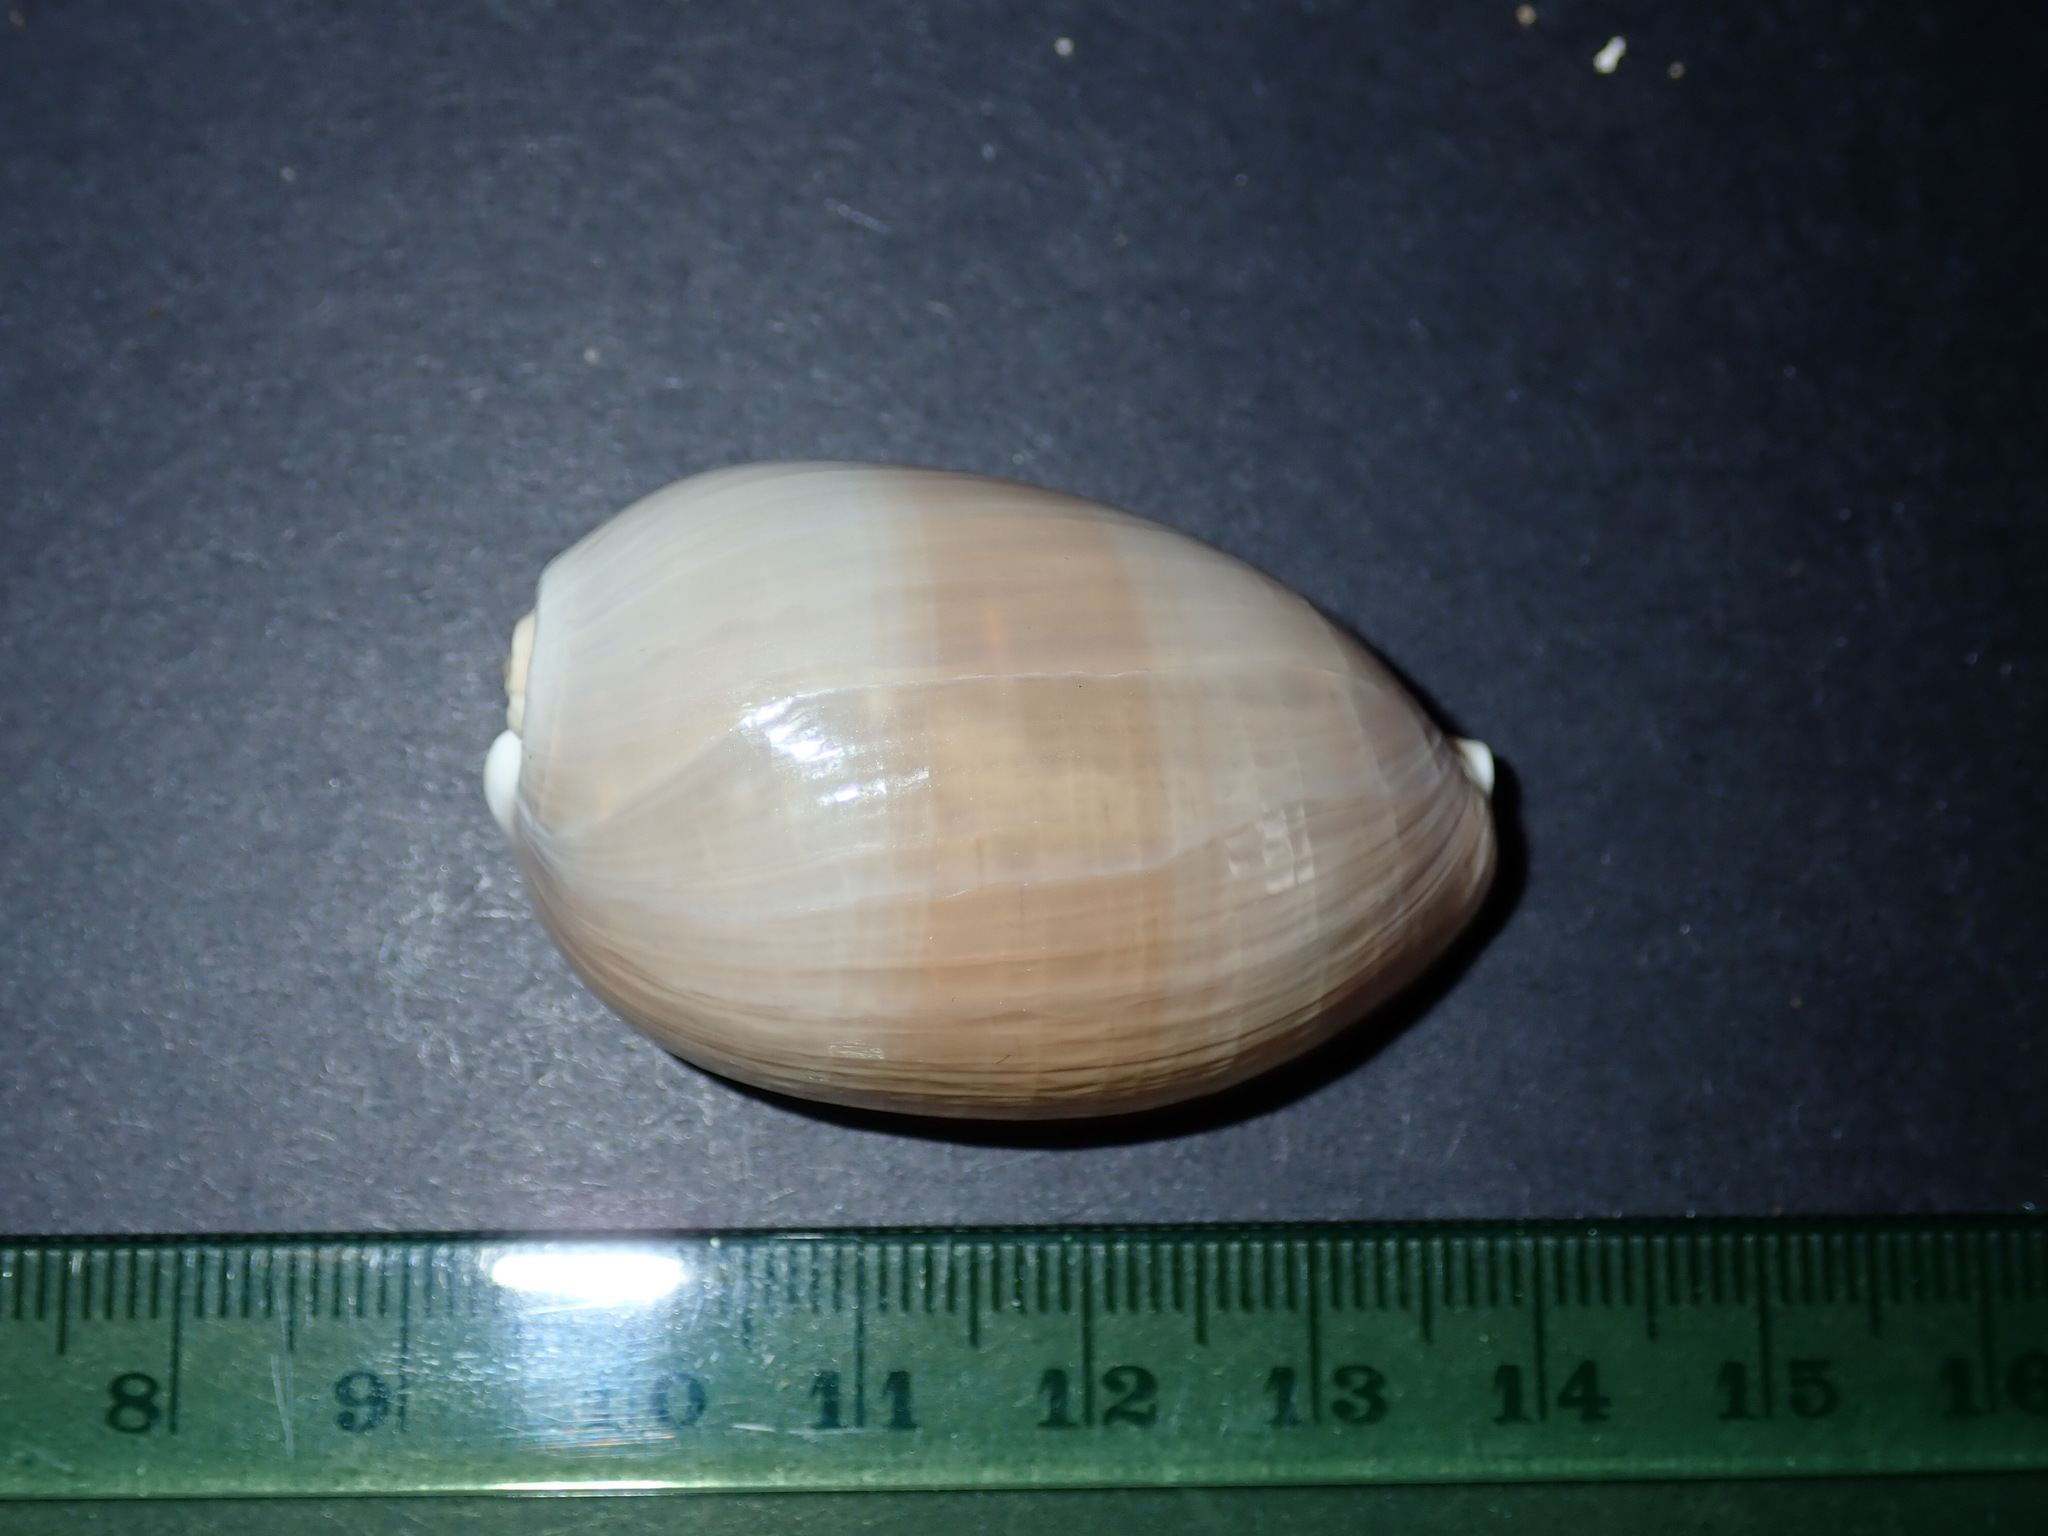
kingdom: Animalia
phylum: Mollusca
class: Gastropoda
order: Littorinimorpha
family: Cypraeidae
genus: Monetaria
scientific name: Monetaria caputserpentis
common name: Serpent's head cowrie
